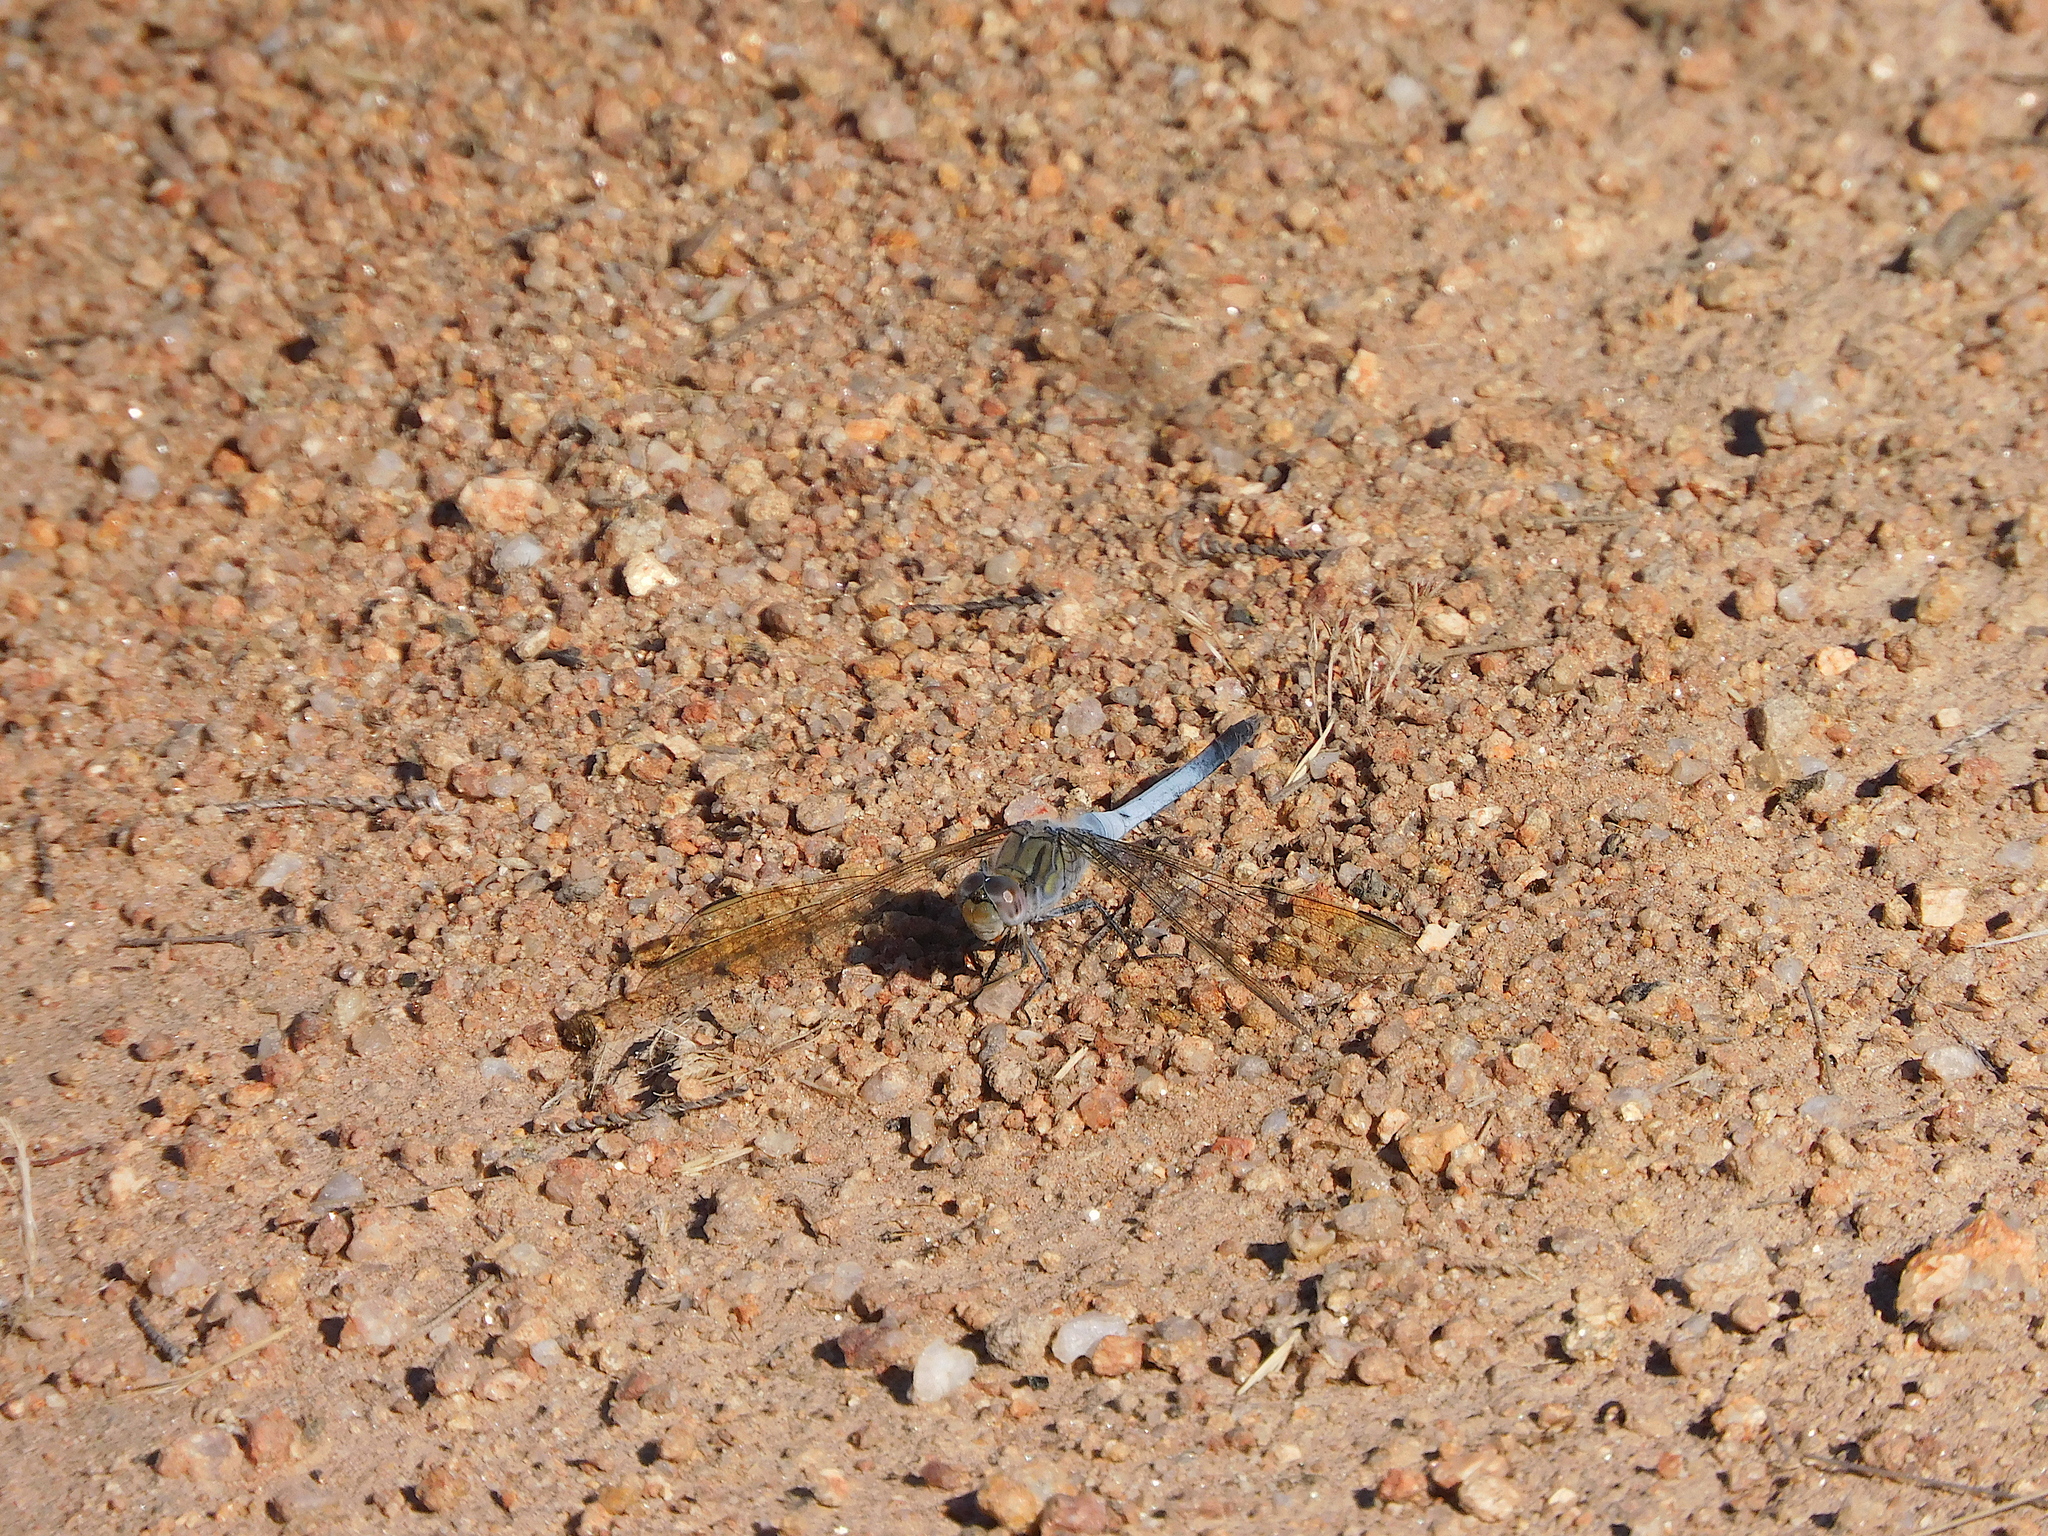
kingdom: Animalia
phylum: Arthropoda
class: Insecta
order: Odonata
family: Libellulidae
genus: Orthetrum
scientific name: Orthetrum caledonicum
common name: Blue skimmer
